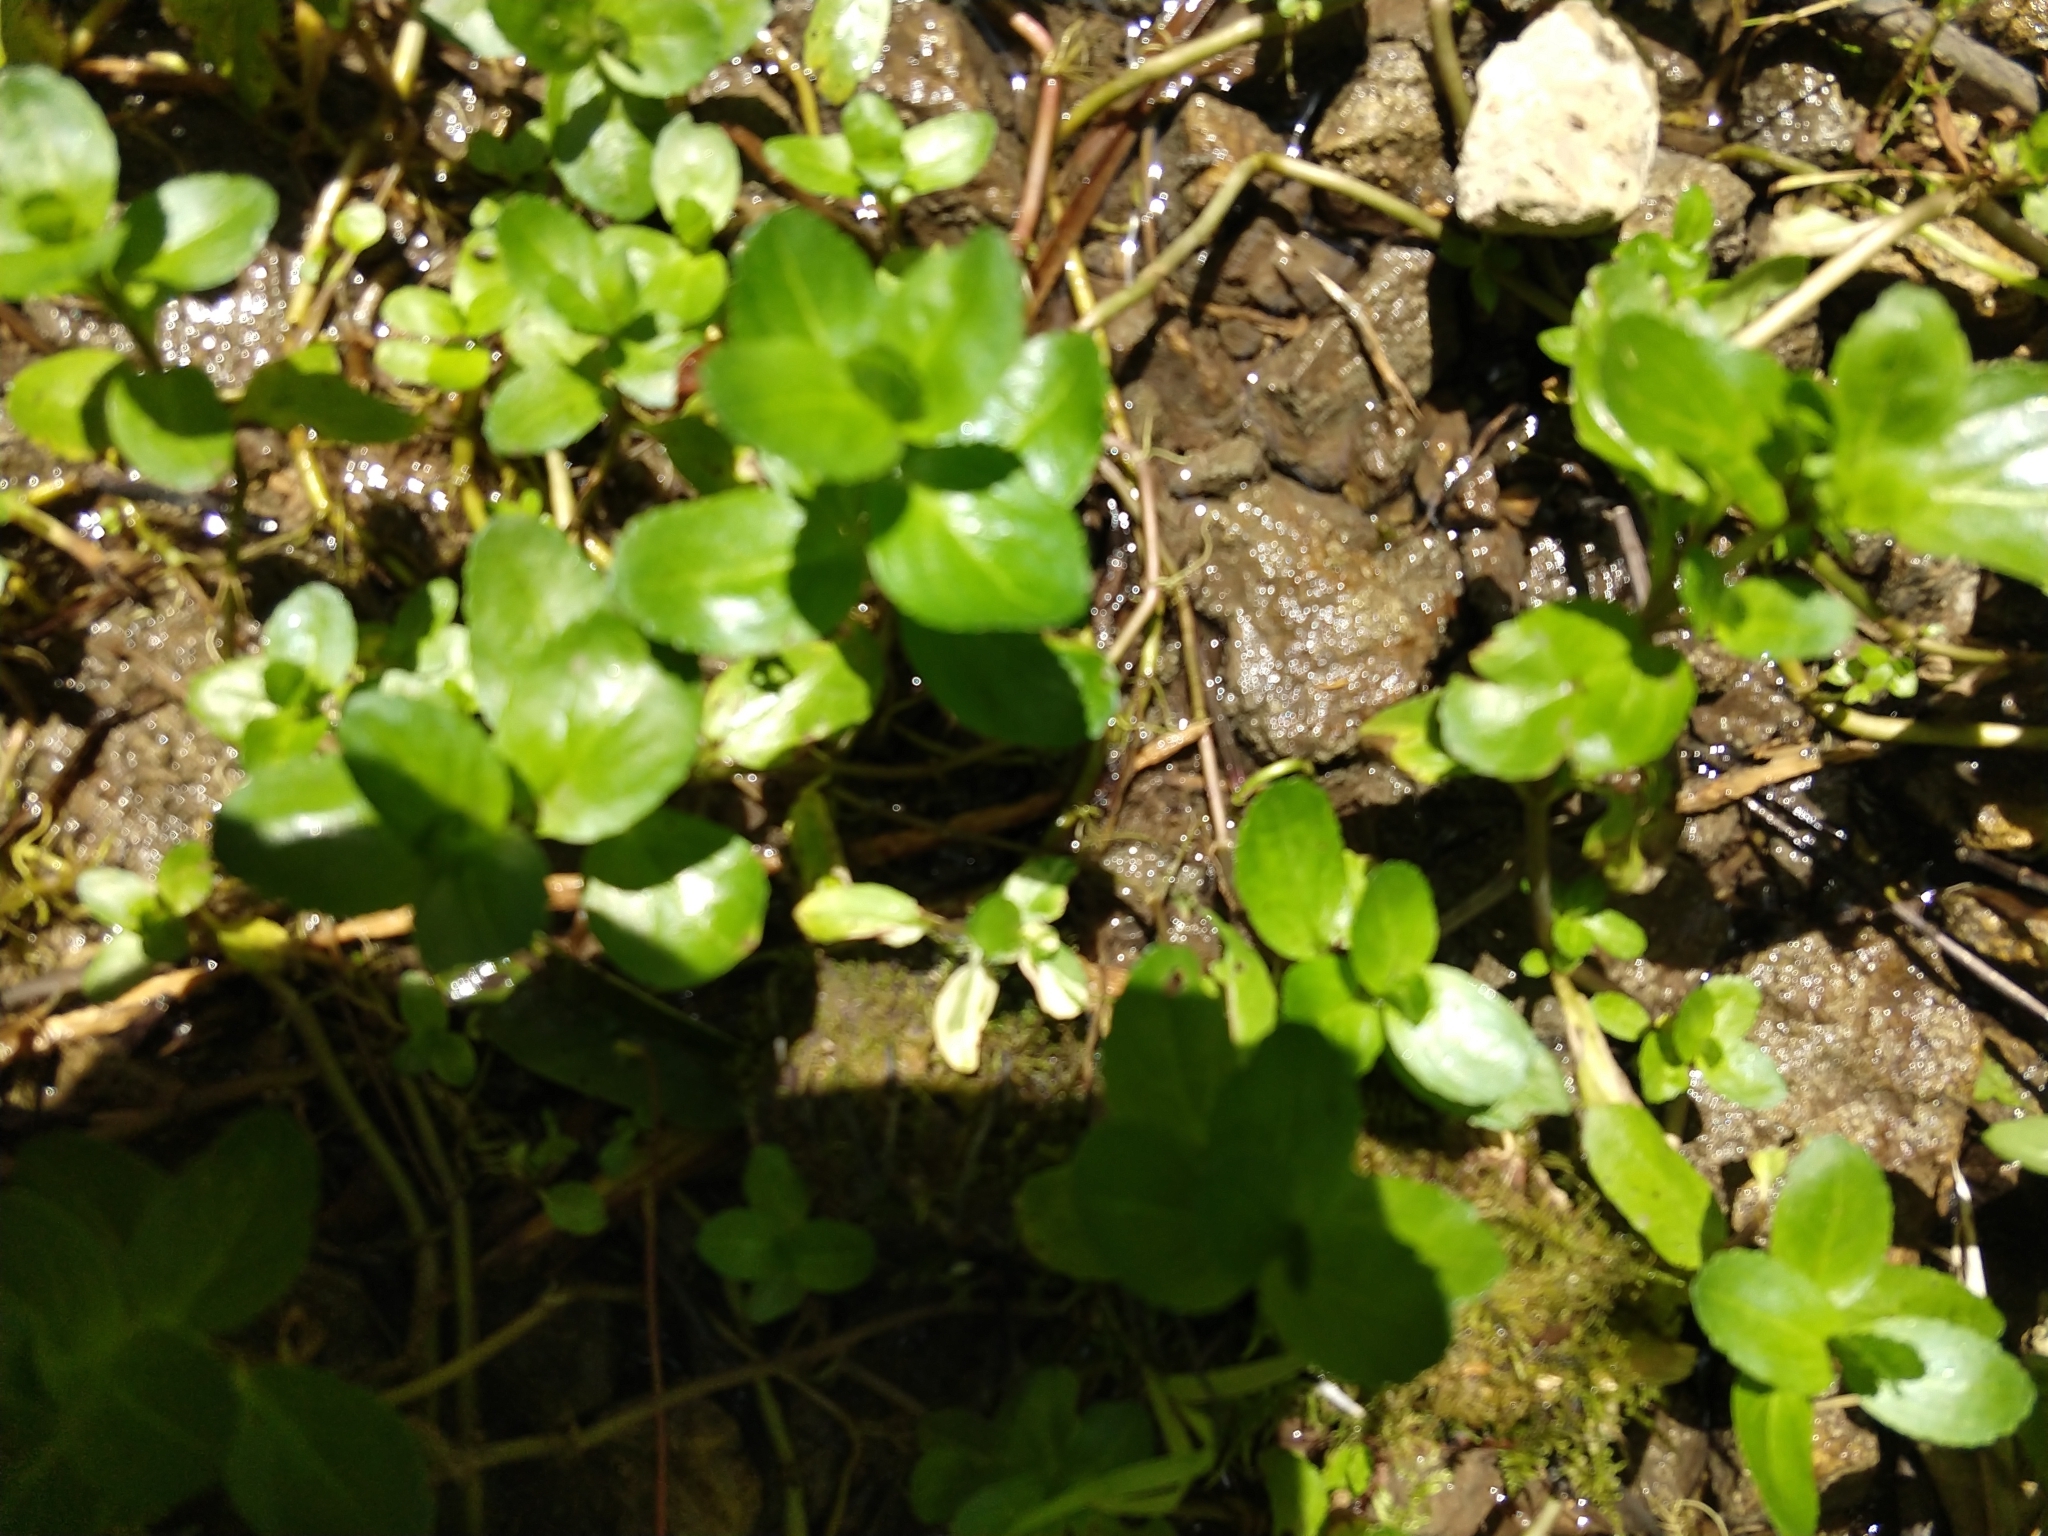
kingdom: Plantae
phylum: Tracheophyta
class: Magnoliopsida
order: Lamiales
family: Plantaginaceae
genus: Veronica
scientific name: Veronica beccabunga
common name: Brooklime
